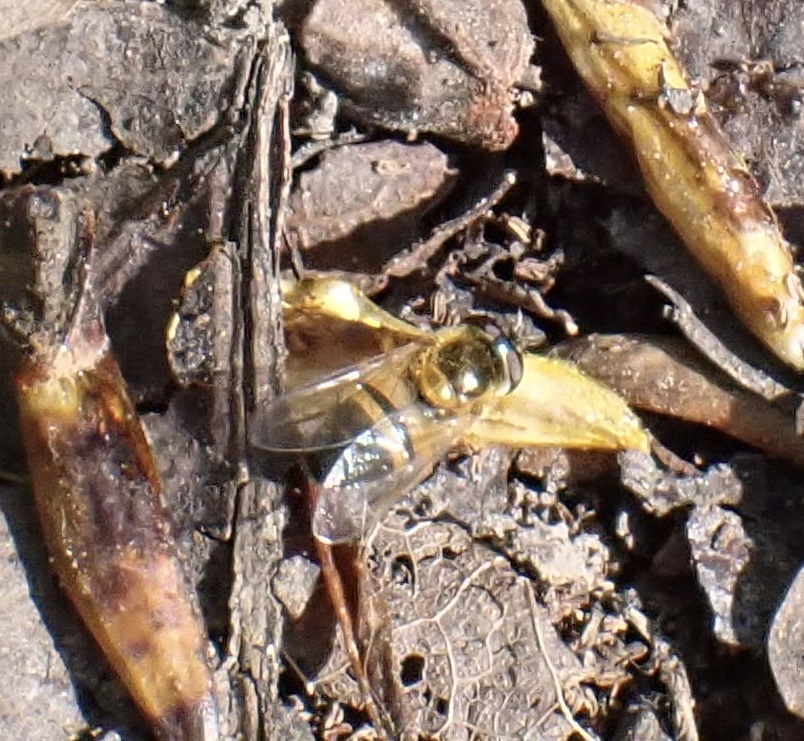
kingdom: Animalia
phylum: Arthropoda
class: Insecta
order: Diptera
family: Syrphidae
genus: Epistrophe
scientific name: Epistrophe eligans
